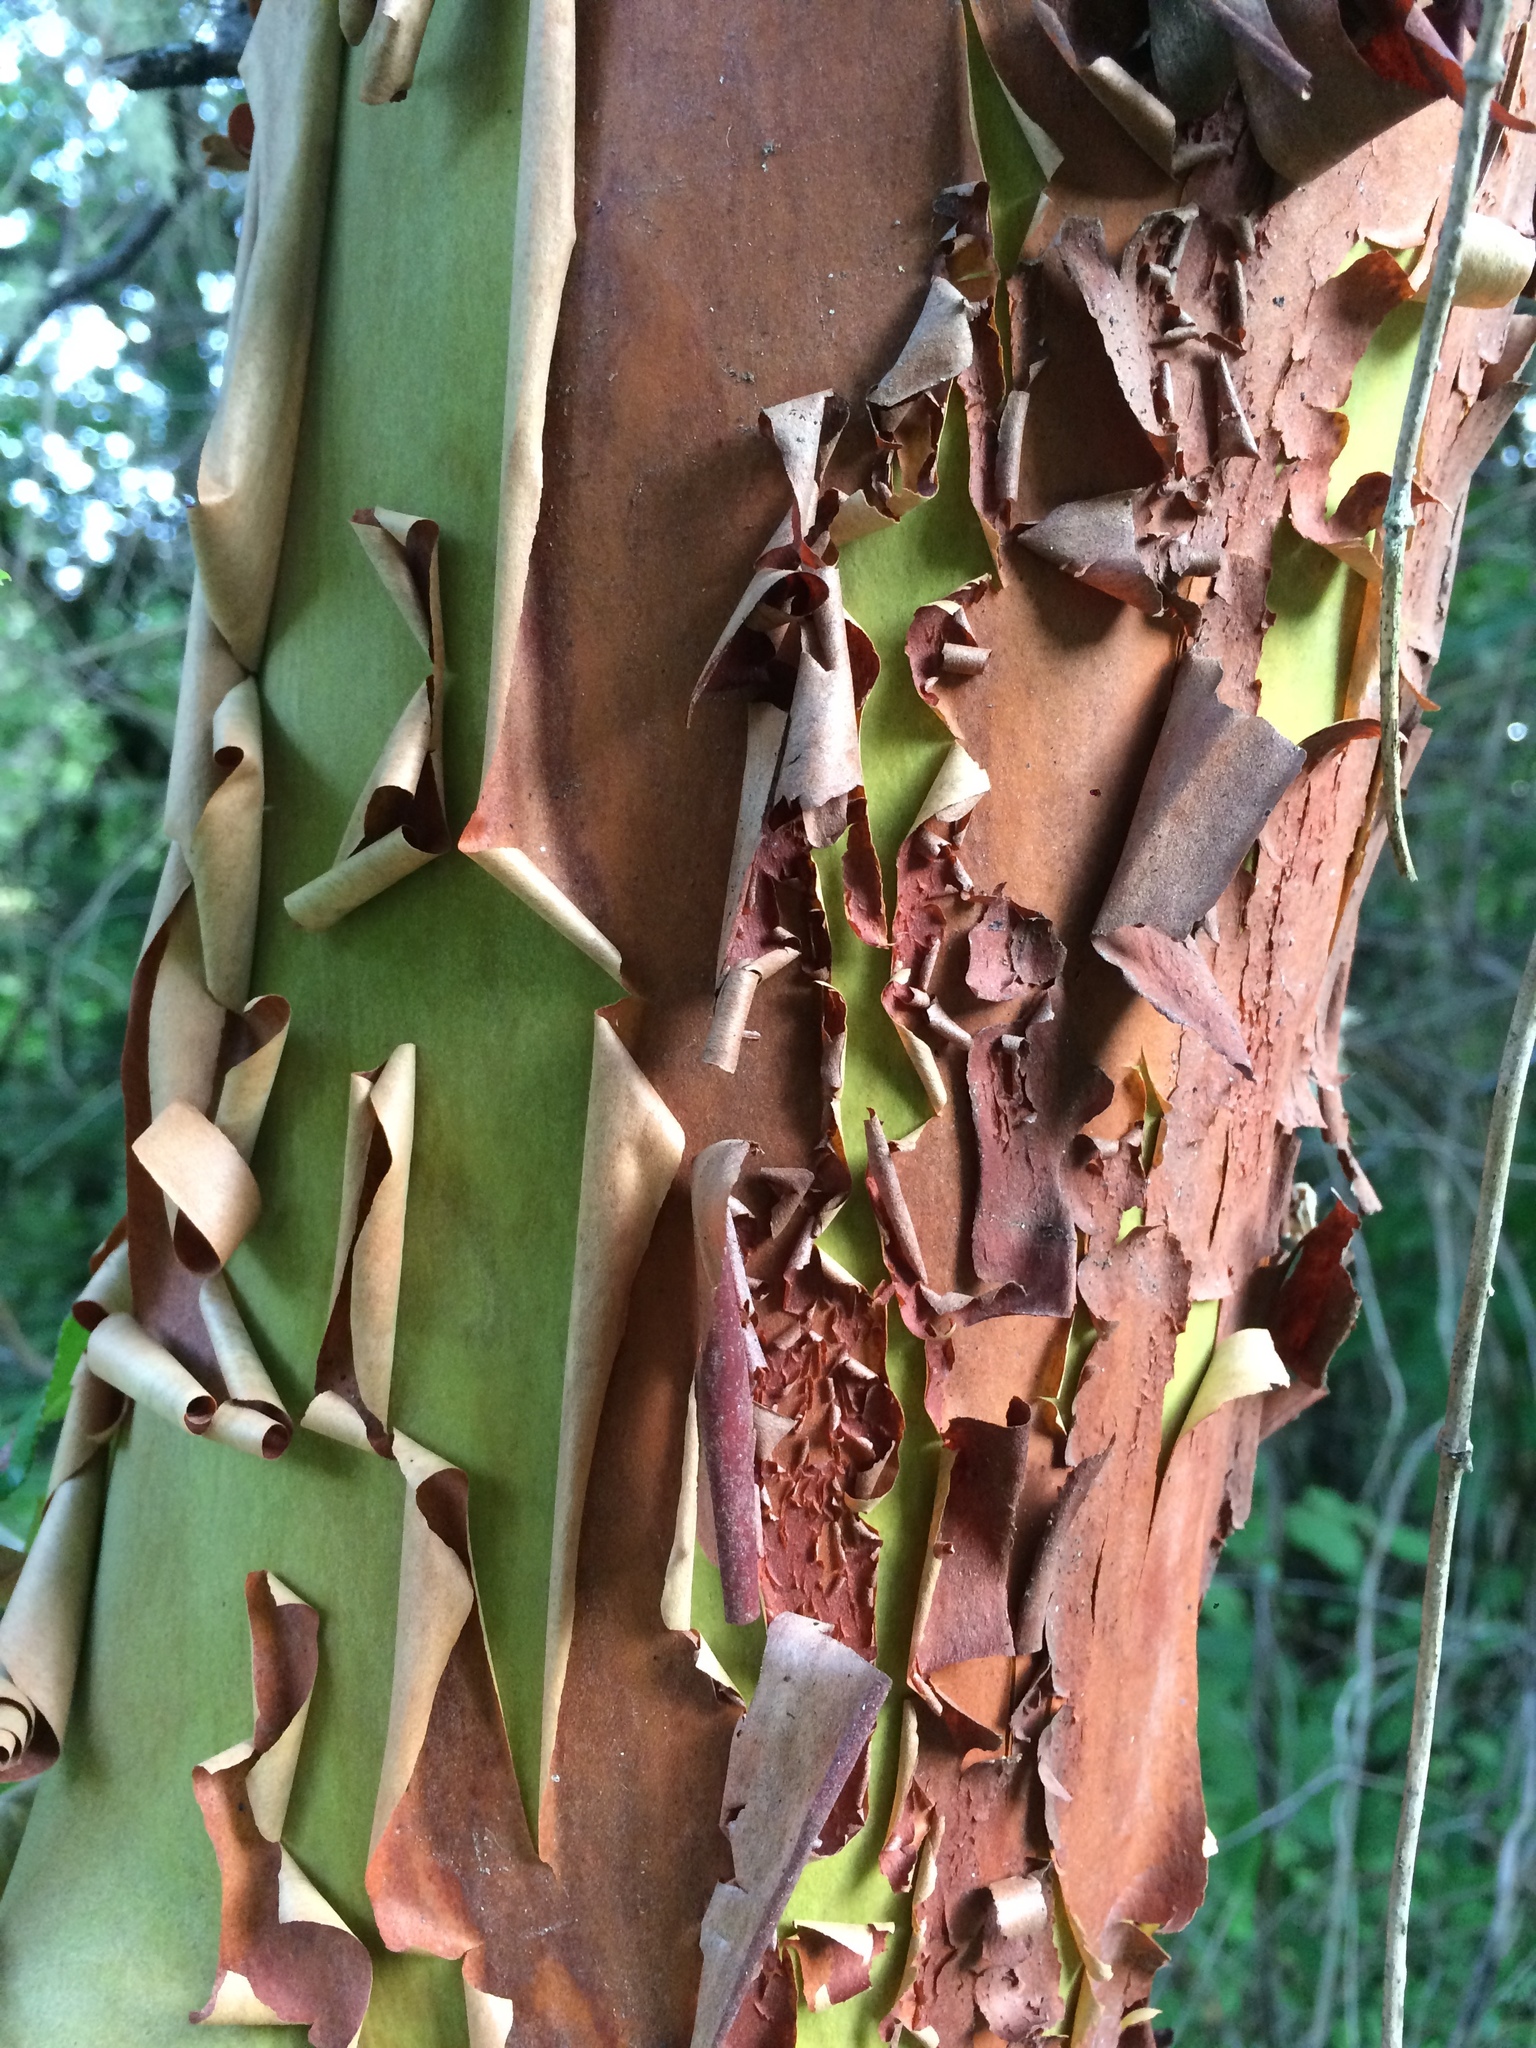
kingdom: Plantae
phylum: Tracheophyta
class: Magnoliopsida
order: Ericales
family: Ericaceae
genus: Arbutus
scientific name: Arbutus menziesii
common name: Pacific madrone
